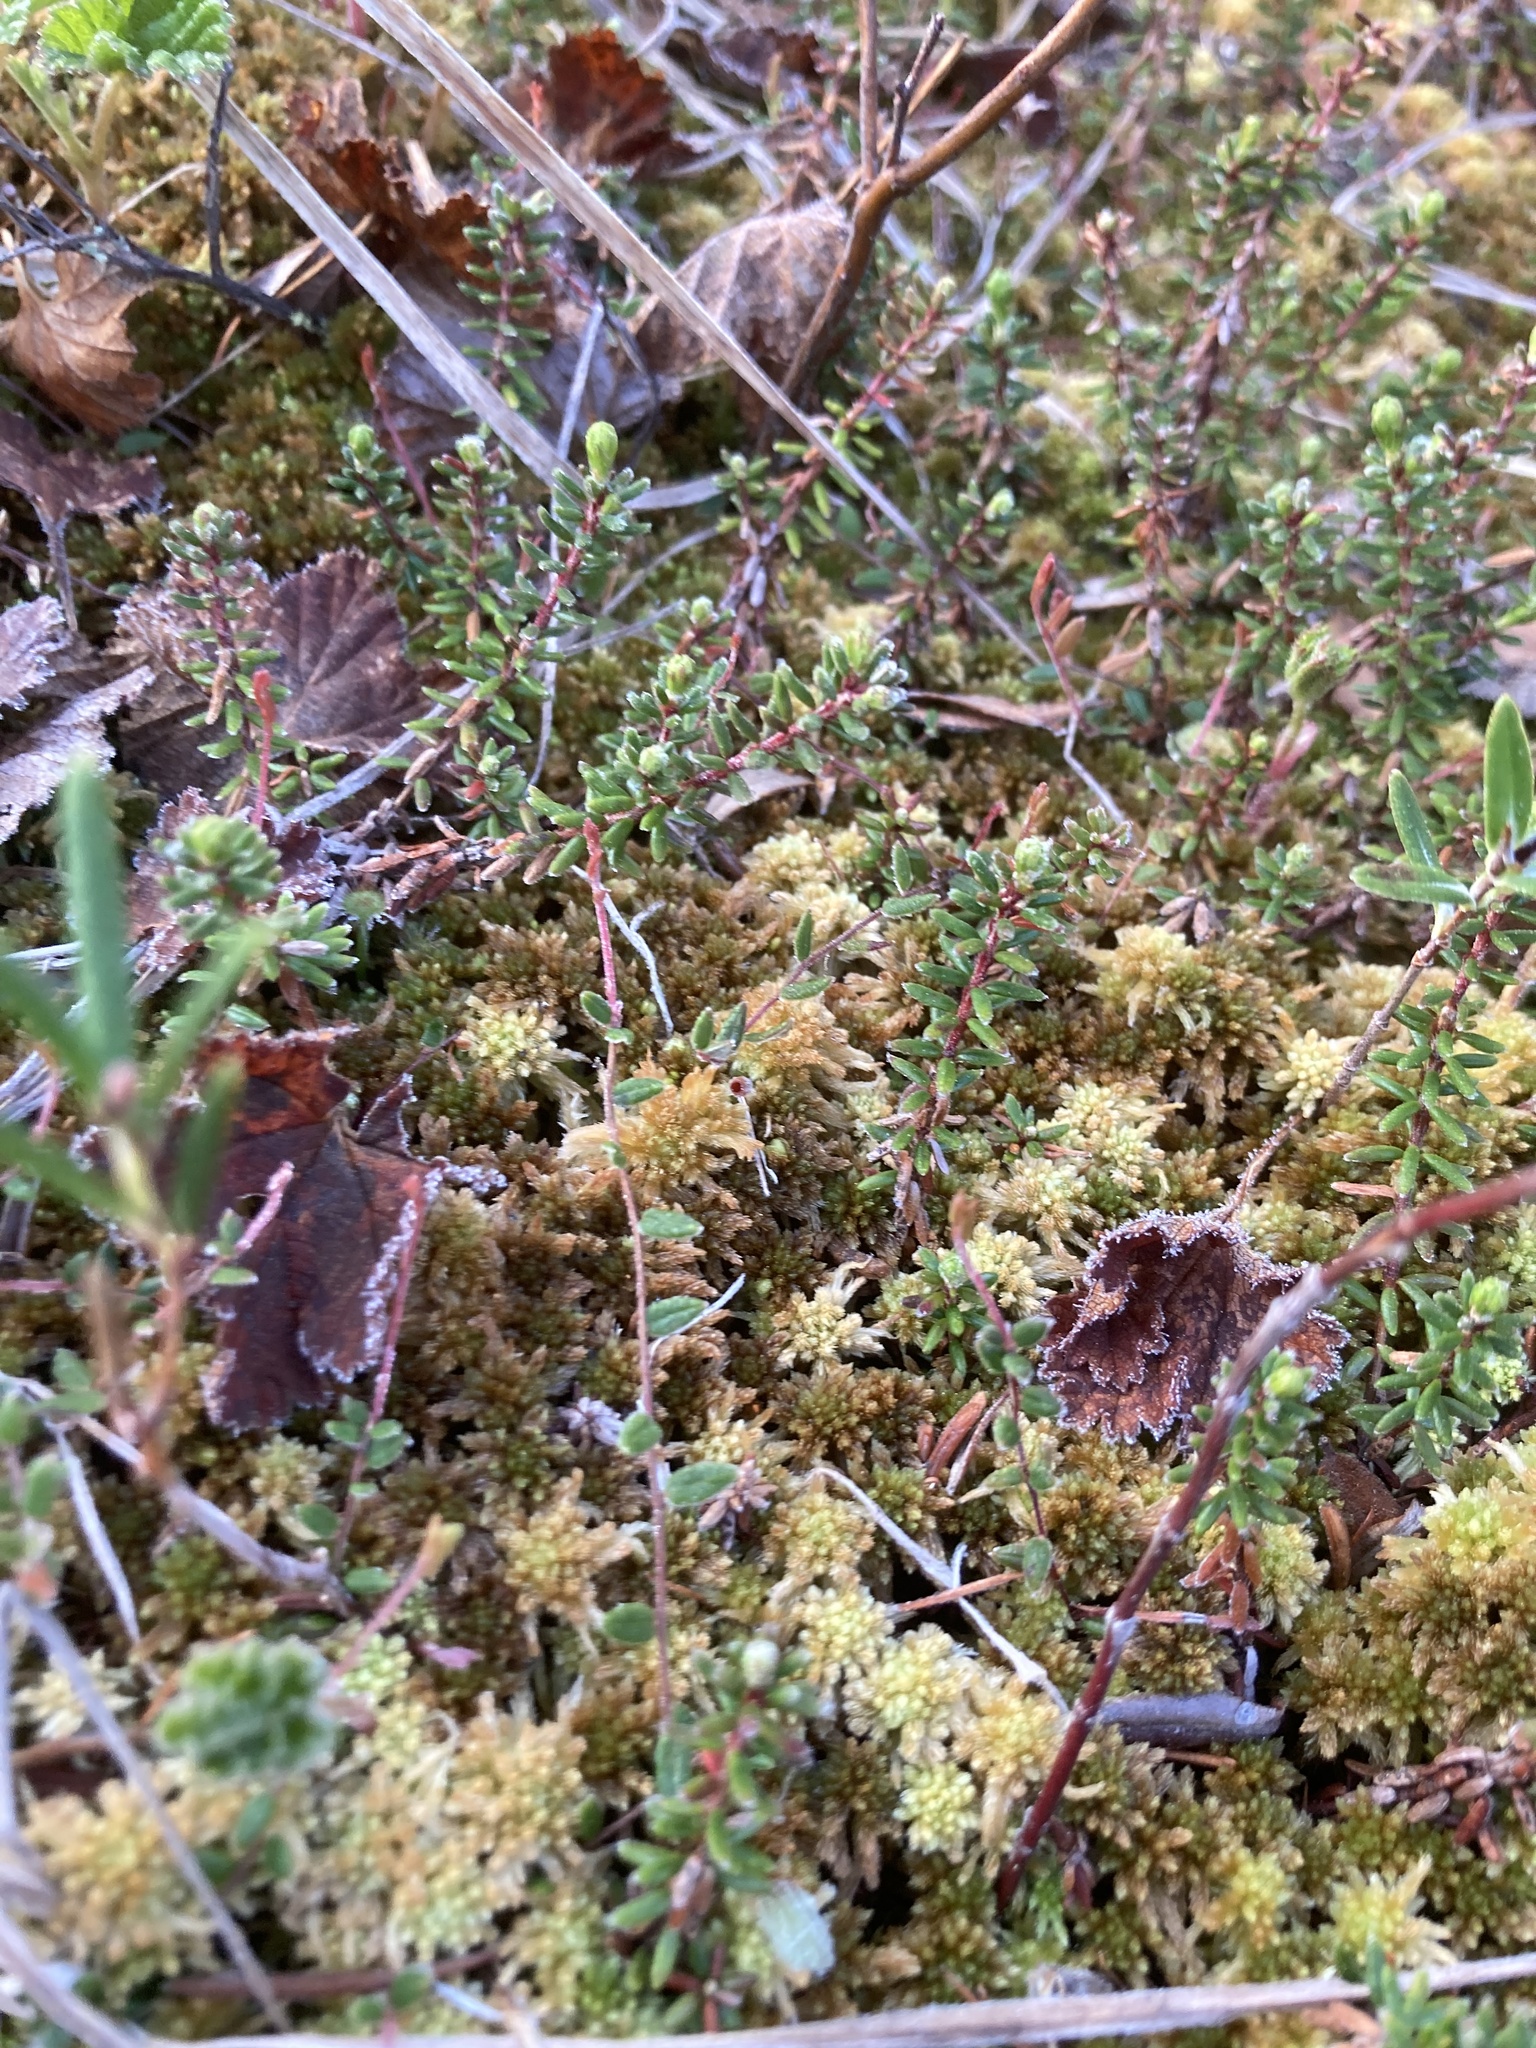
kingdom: Plantae
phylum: Tracheophyta
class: Magnoliopsida
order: Ericales
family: Ericaceae
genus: Vaccinium
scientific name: Vaccinium oxycoccos
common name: Cranberry
